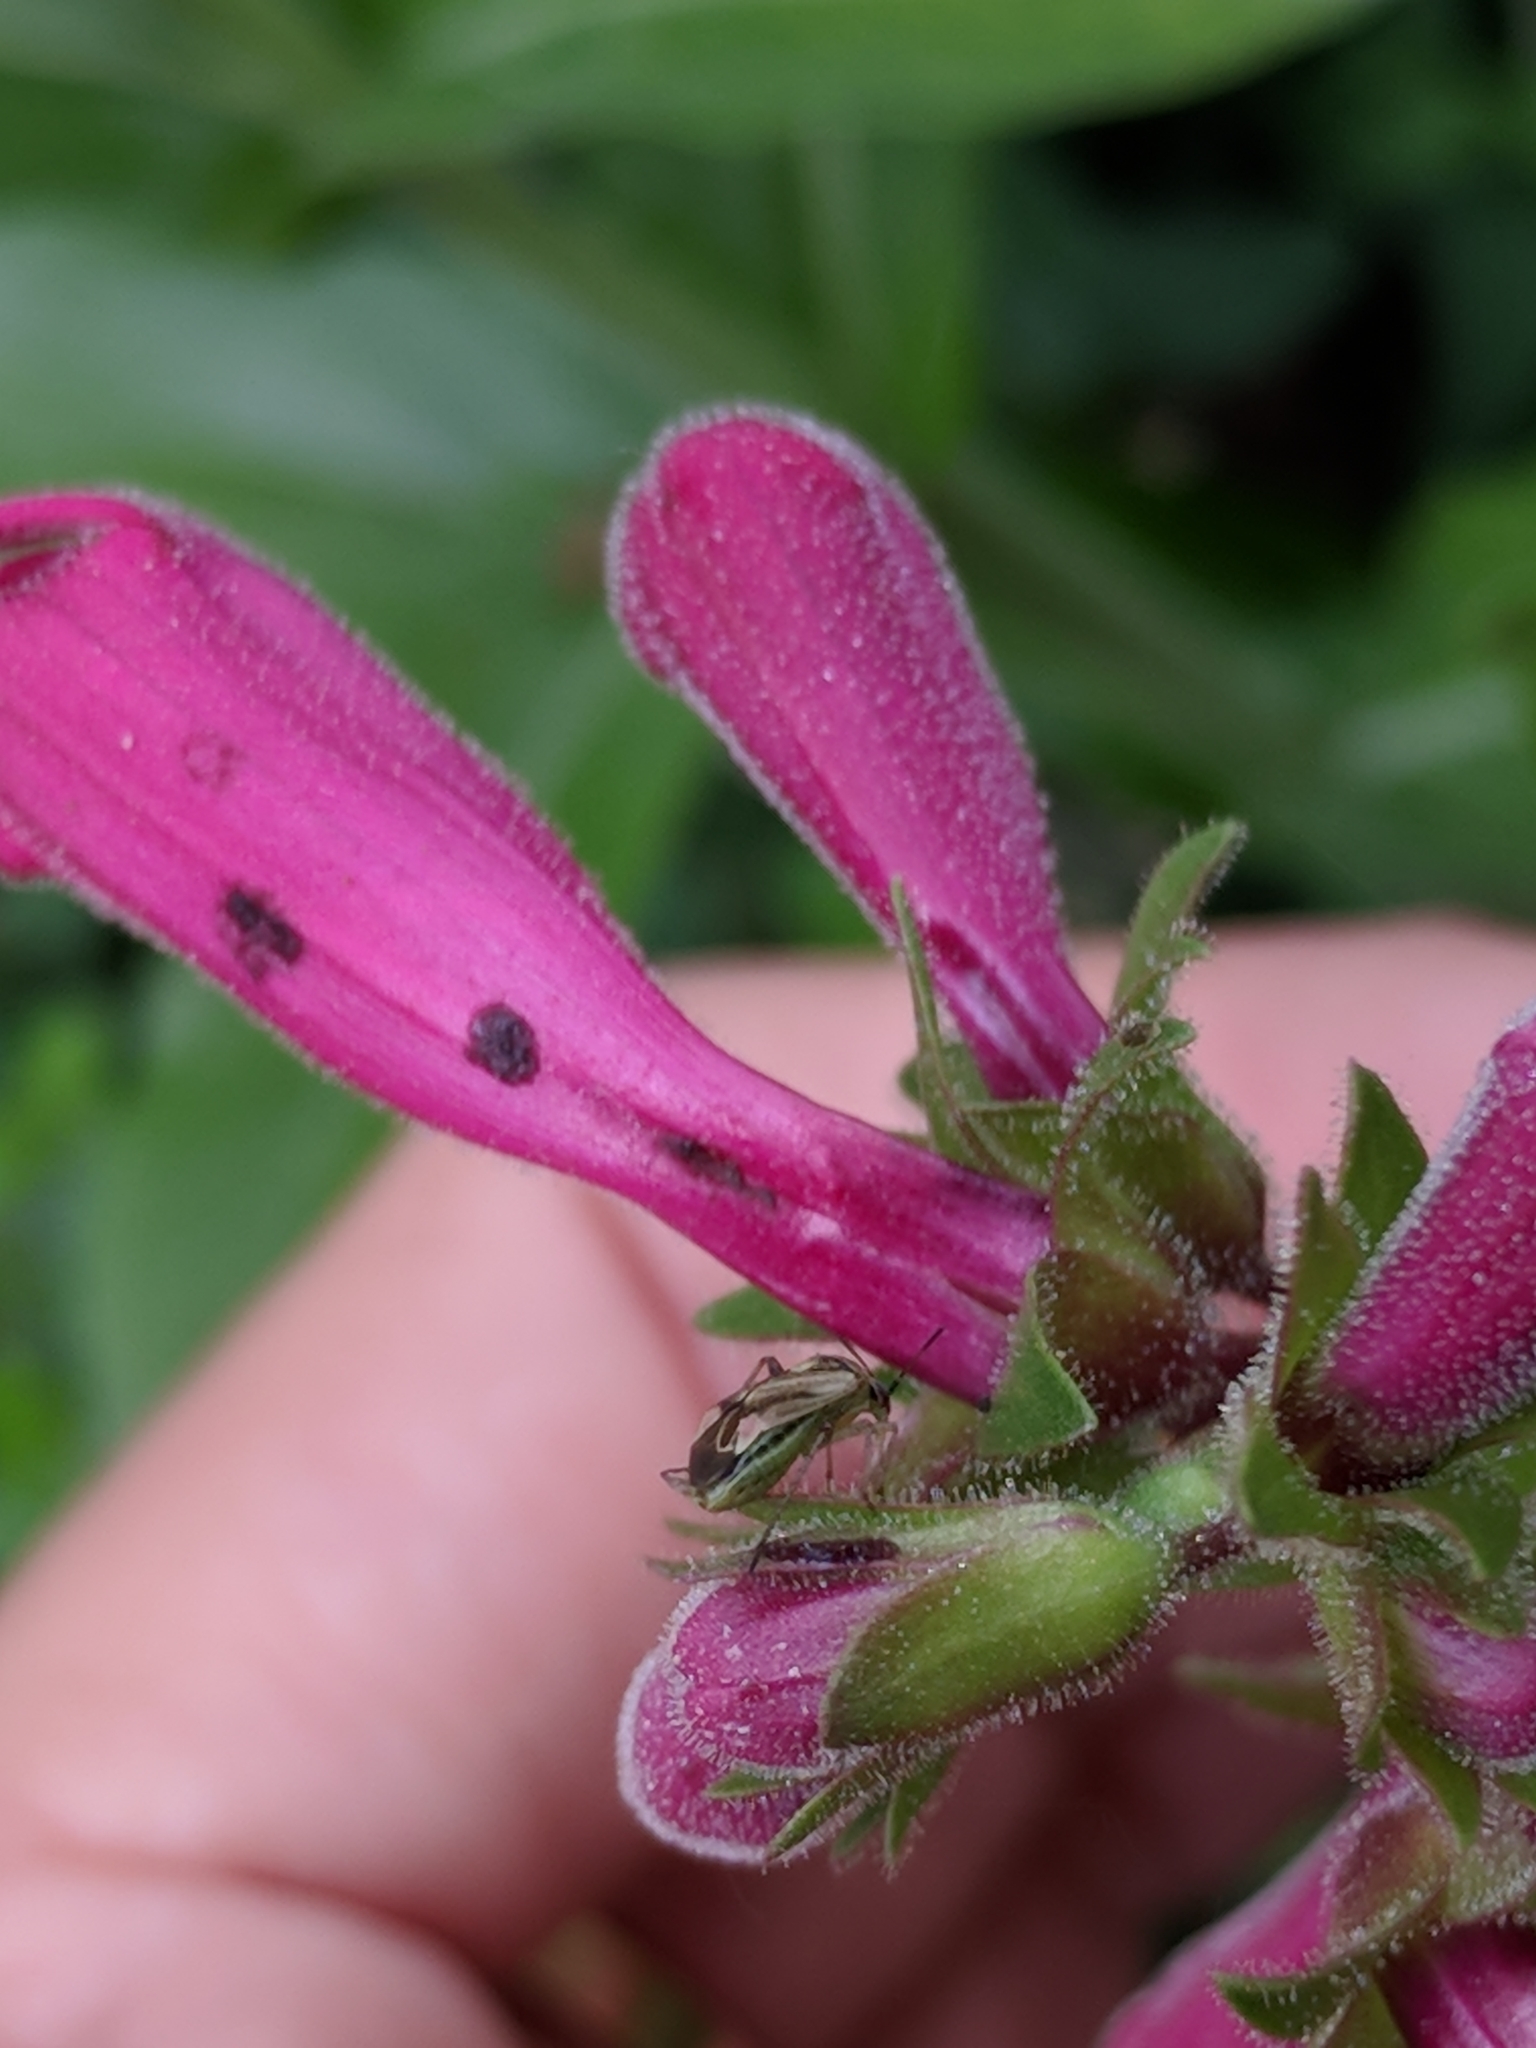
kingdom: Animalia
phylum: Arthropoda
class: Insecta
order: Hemiptera
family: Miridae
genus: Polymerus
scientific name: Polymerus basalis
